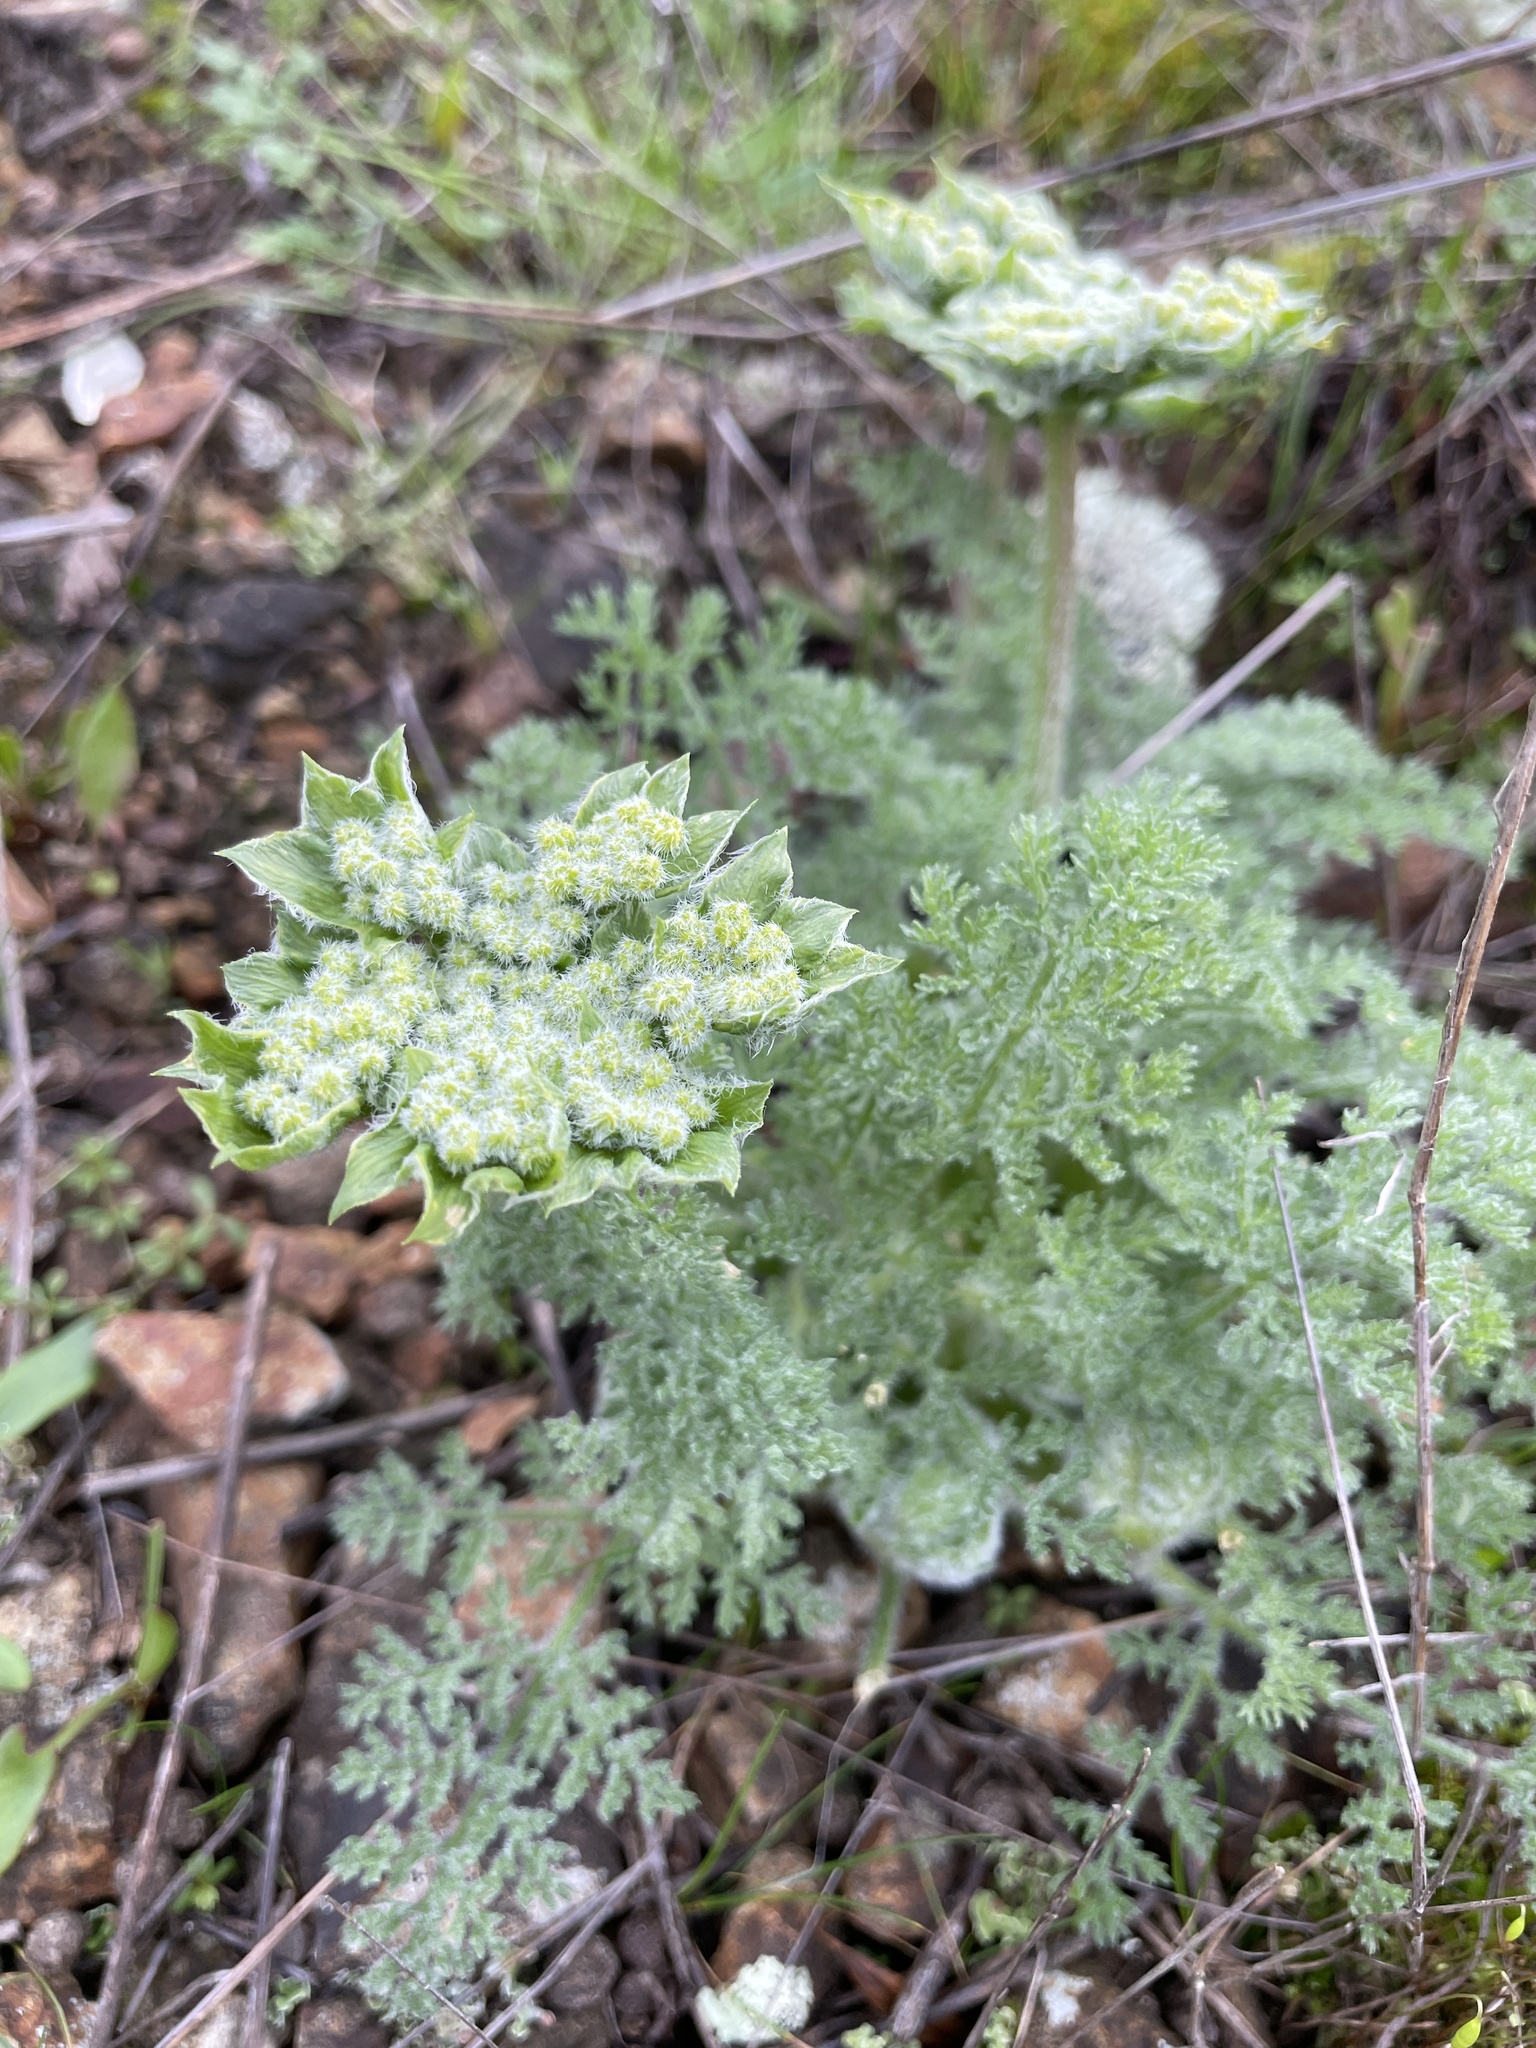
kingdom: Plantae
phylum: Tracheophyta
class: Magnoliopsida
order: Apiales
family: Apiaceae
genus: Lomatium
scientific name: Lomatium dasycarpum
